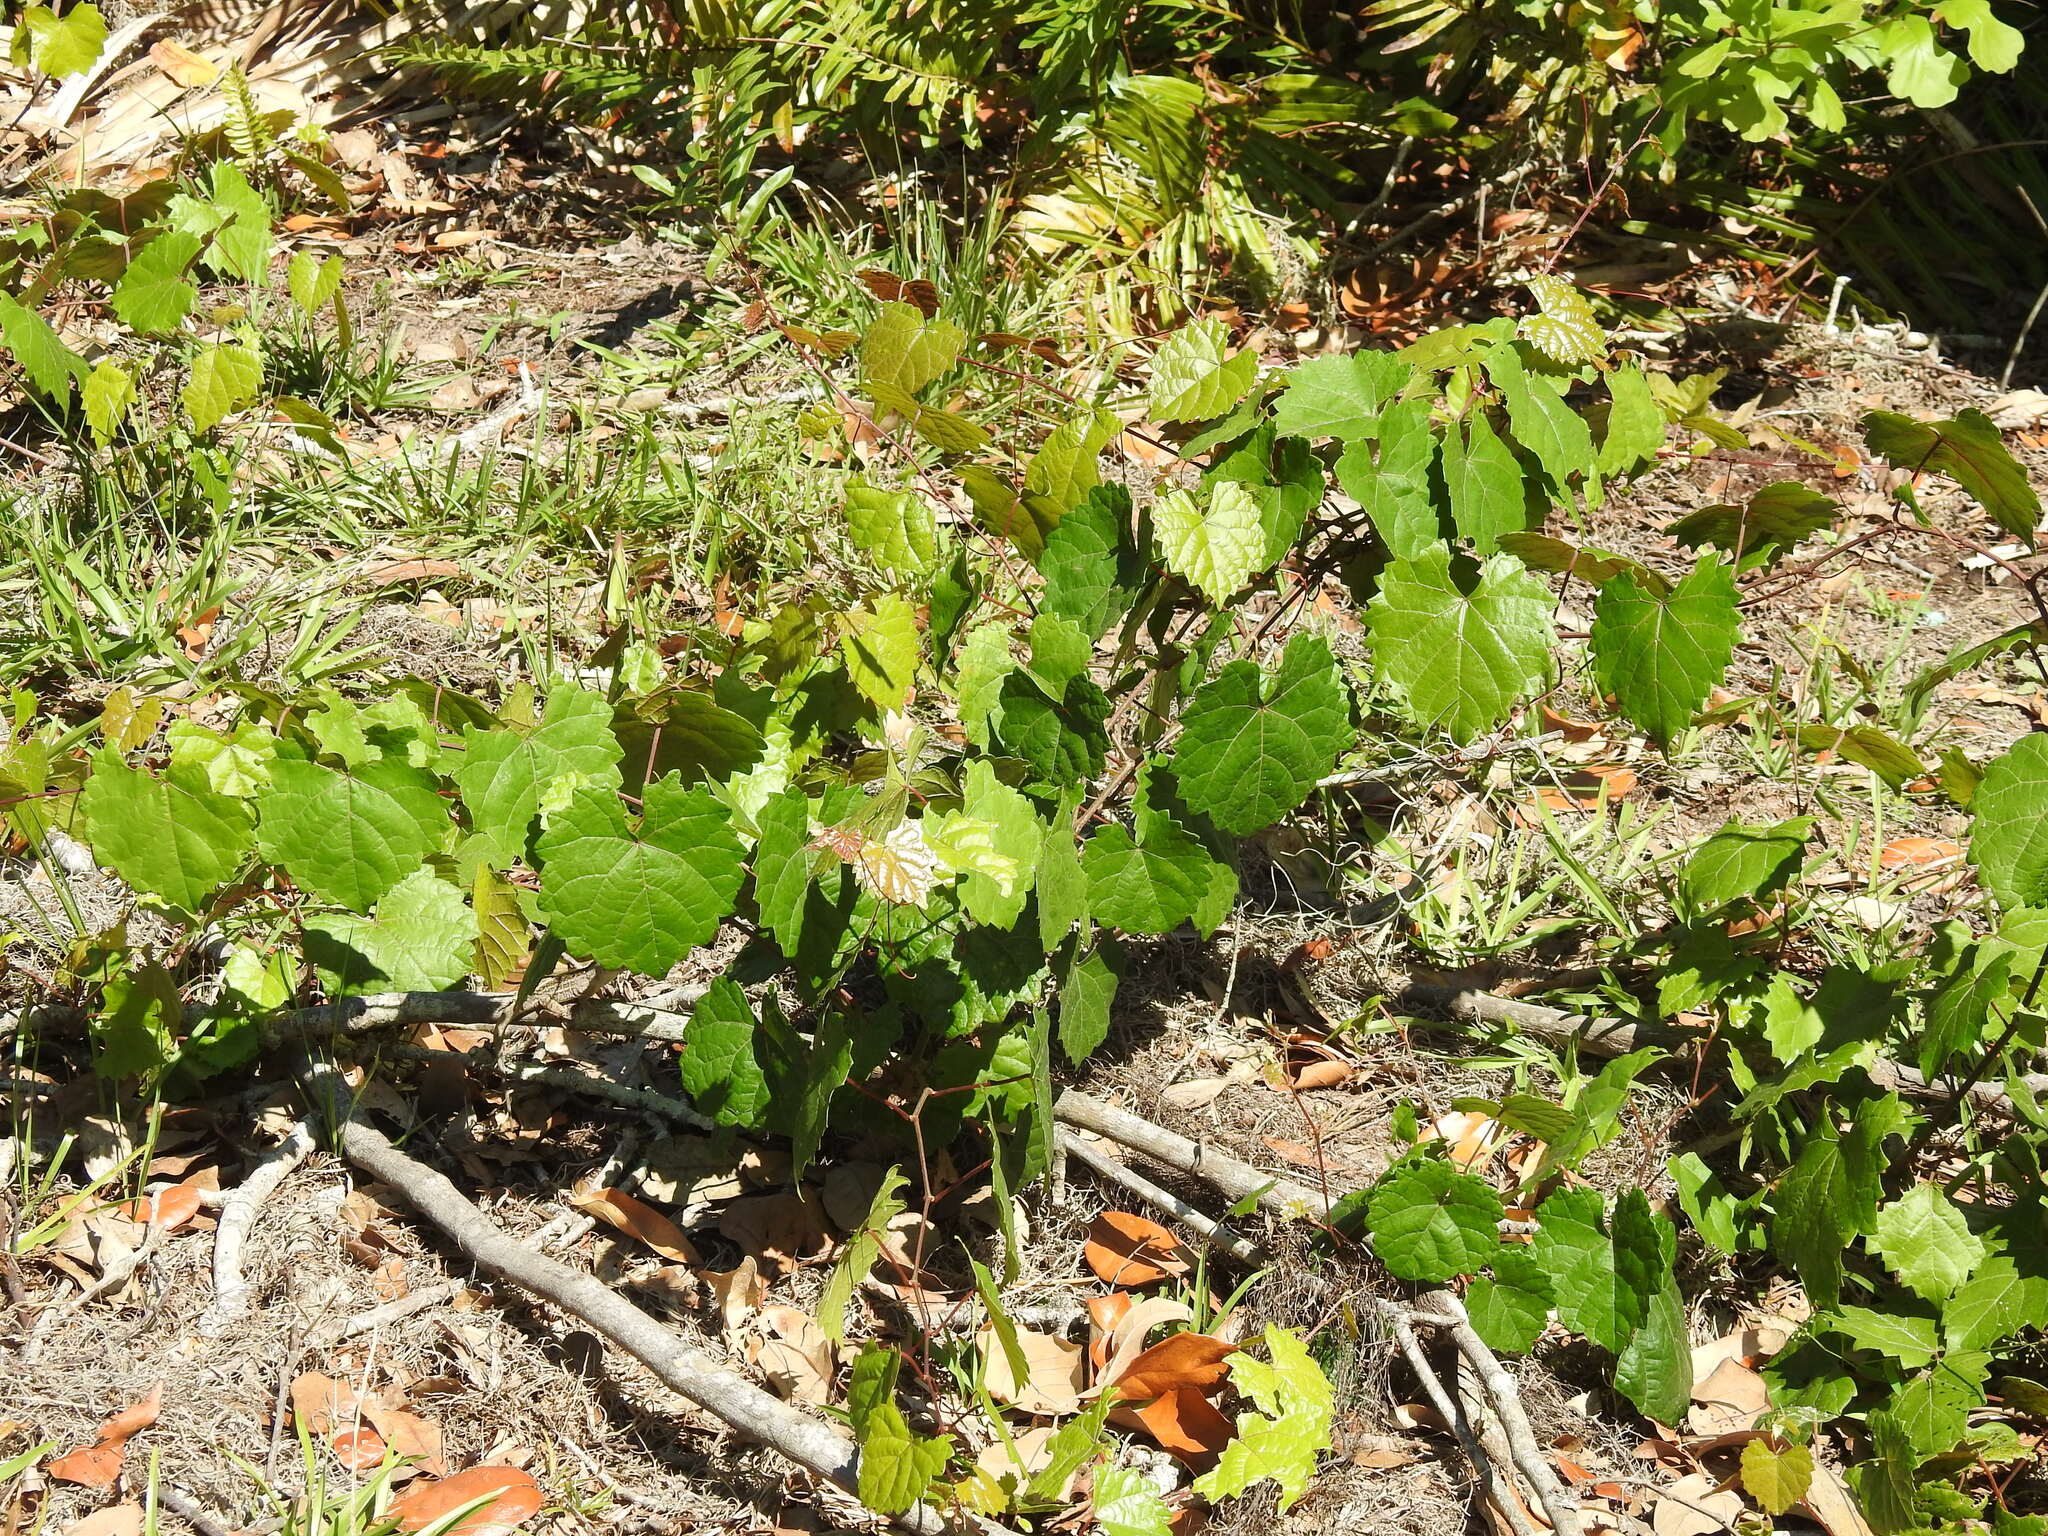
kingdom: Plantae
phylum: Tracheophyta
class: Magnoliopsida
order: Vitales
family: Vitaceae
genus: Vitis
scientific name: Vitis rotundifolia
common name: Muscadine grape
